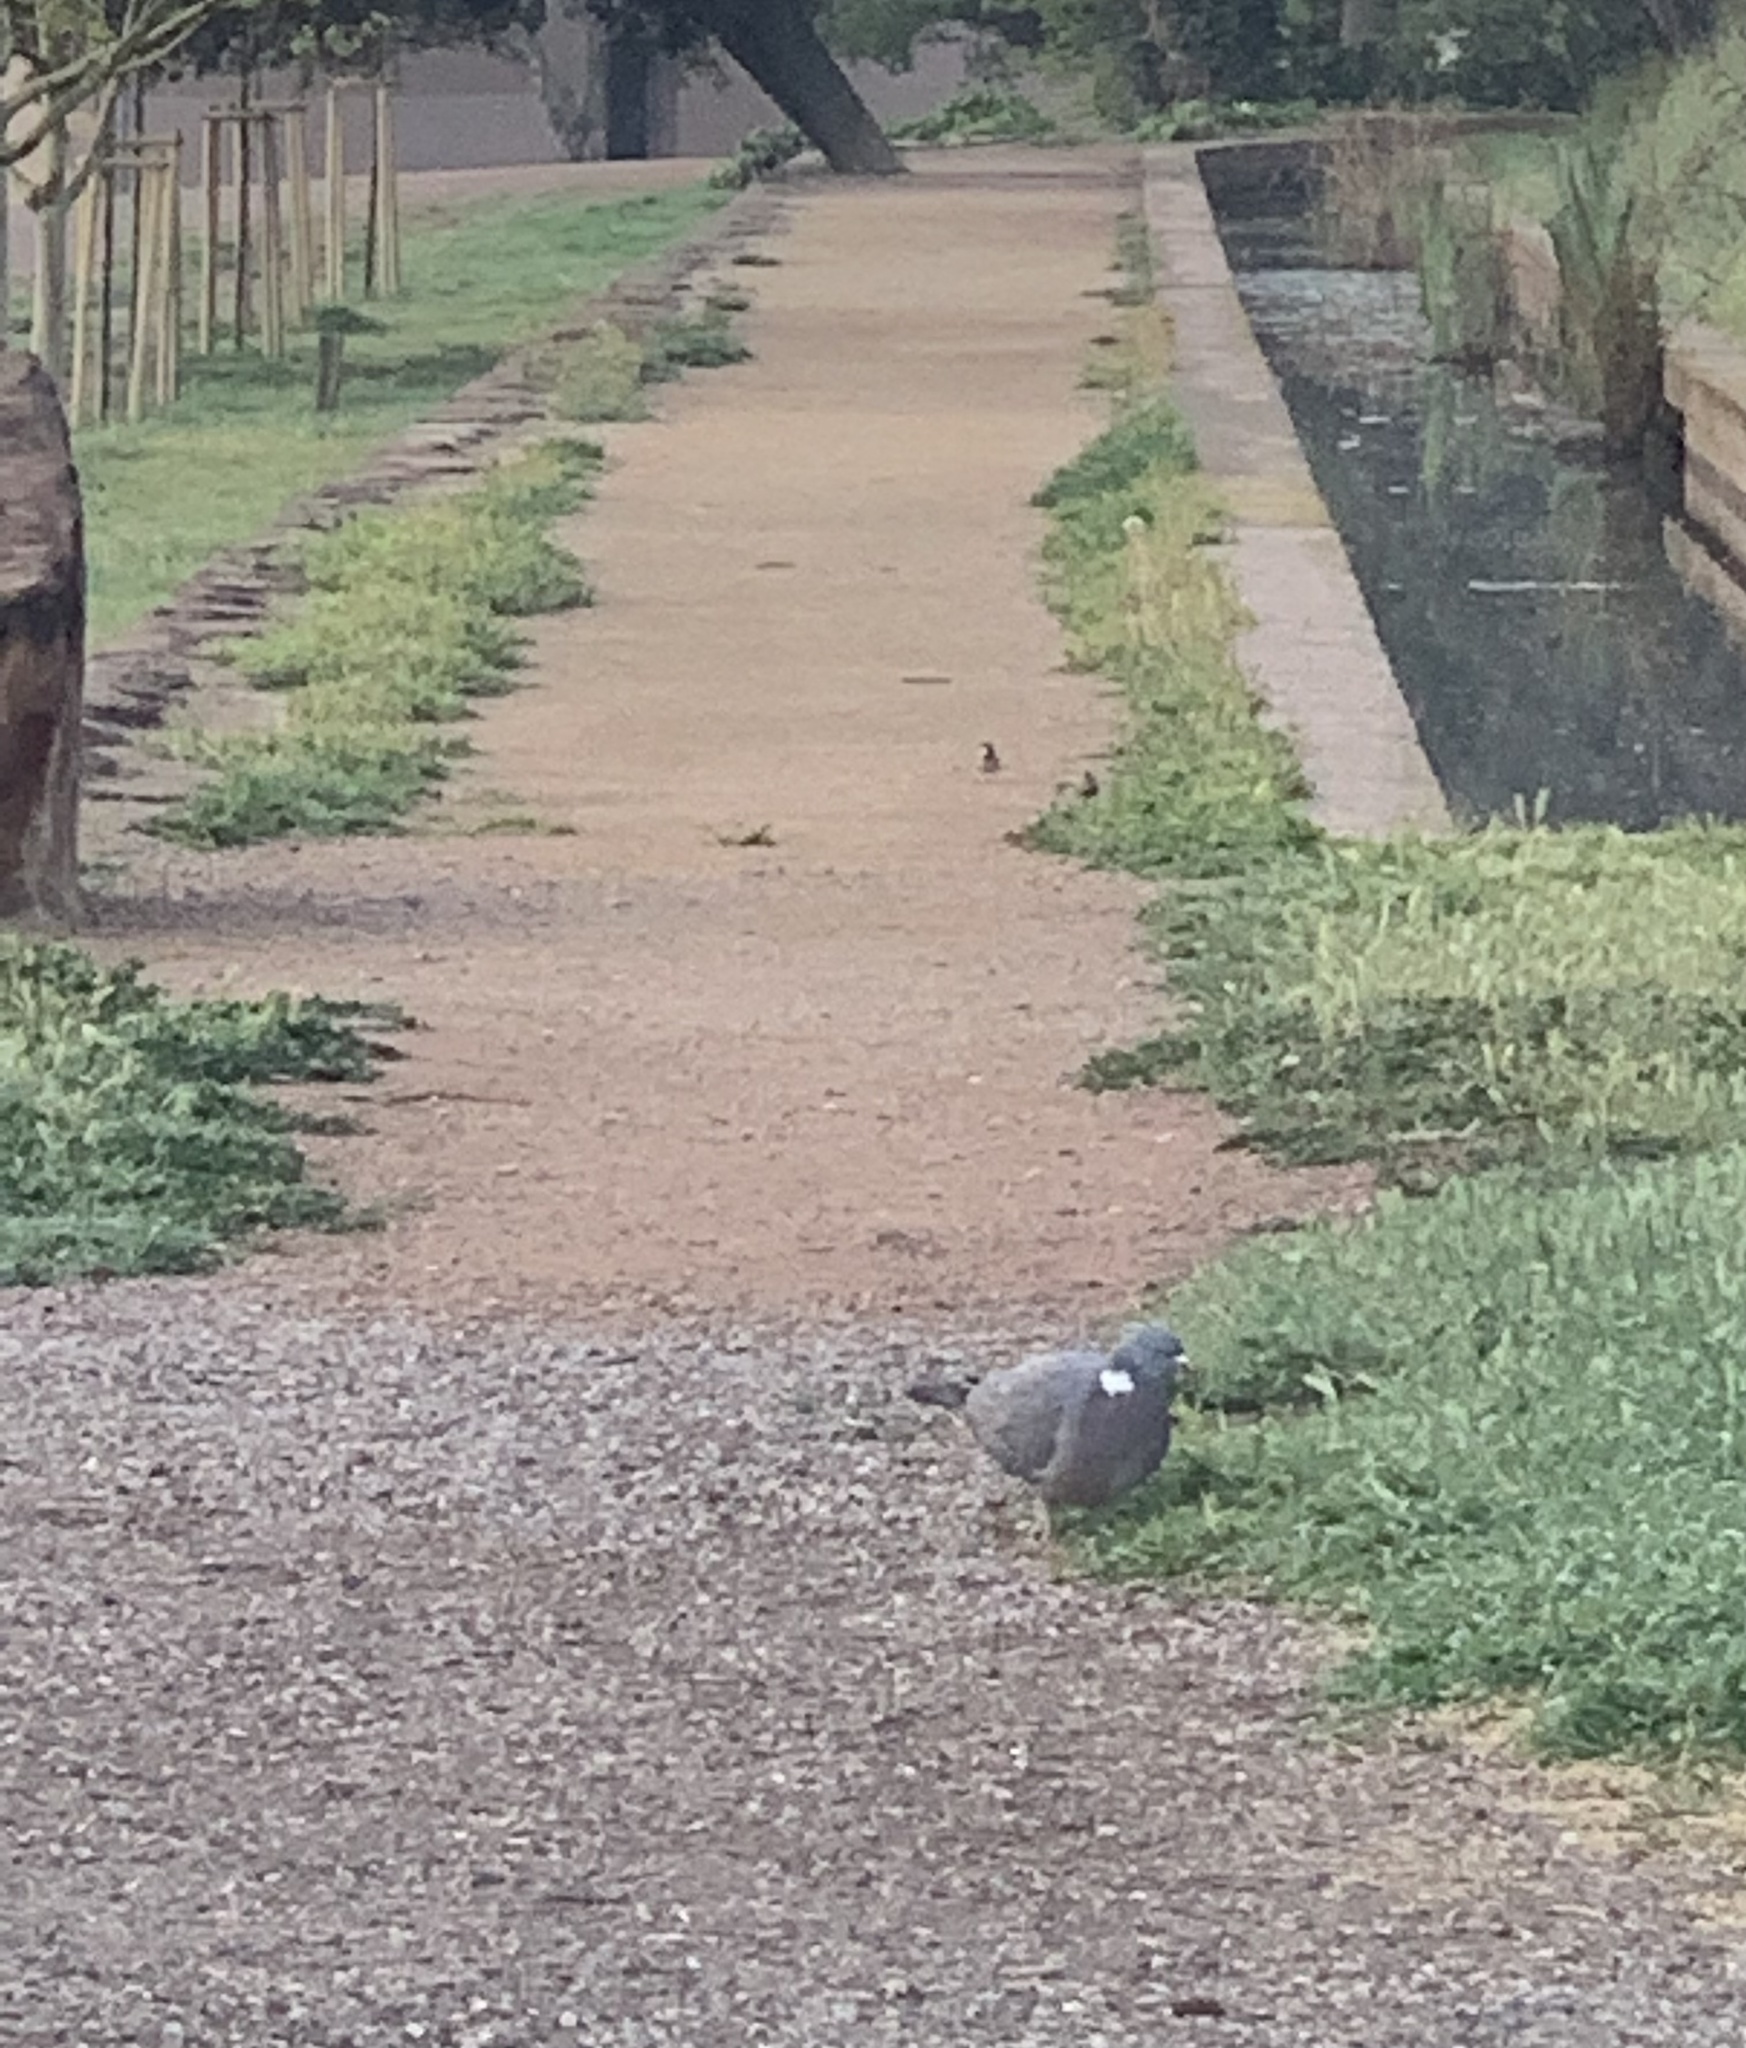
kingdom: Animalia
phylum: Chordata
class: Aves
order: Columbiformes
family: Columbidae
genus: Columba
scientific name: Columba palumbus
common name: Common wood pigeon
